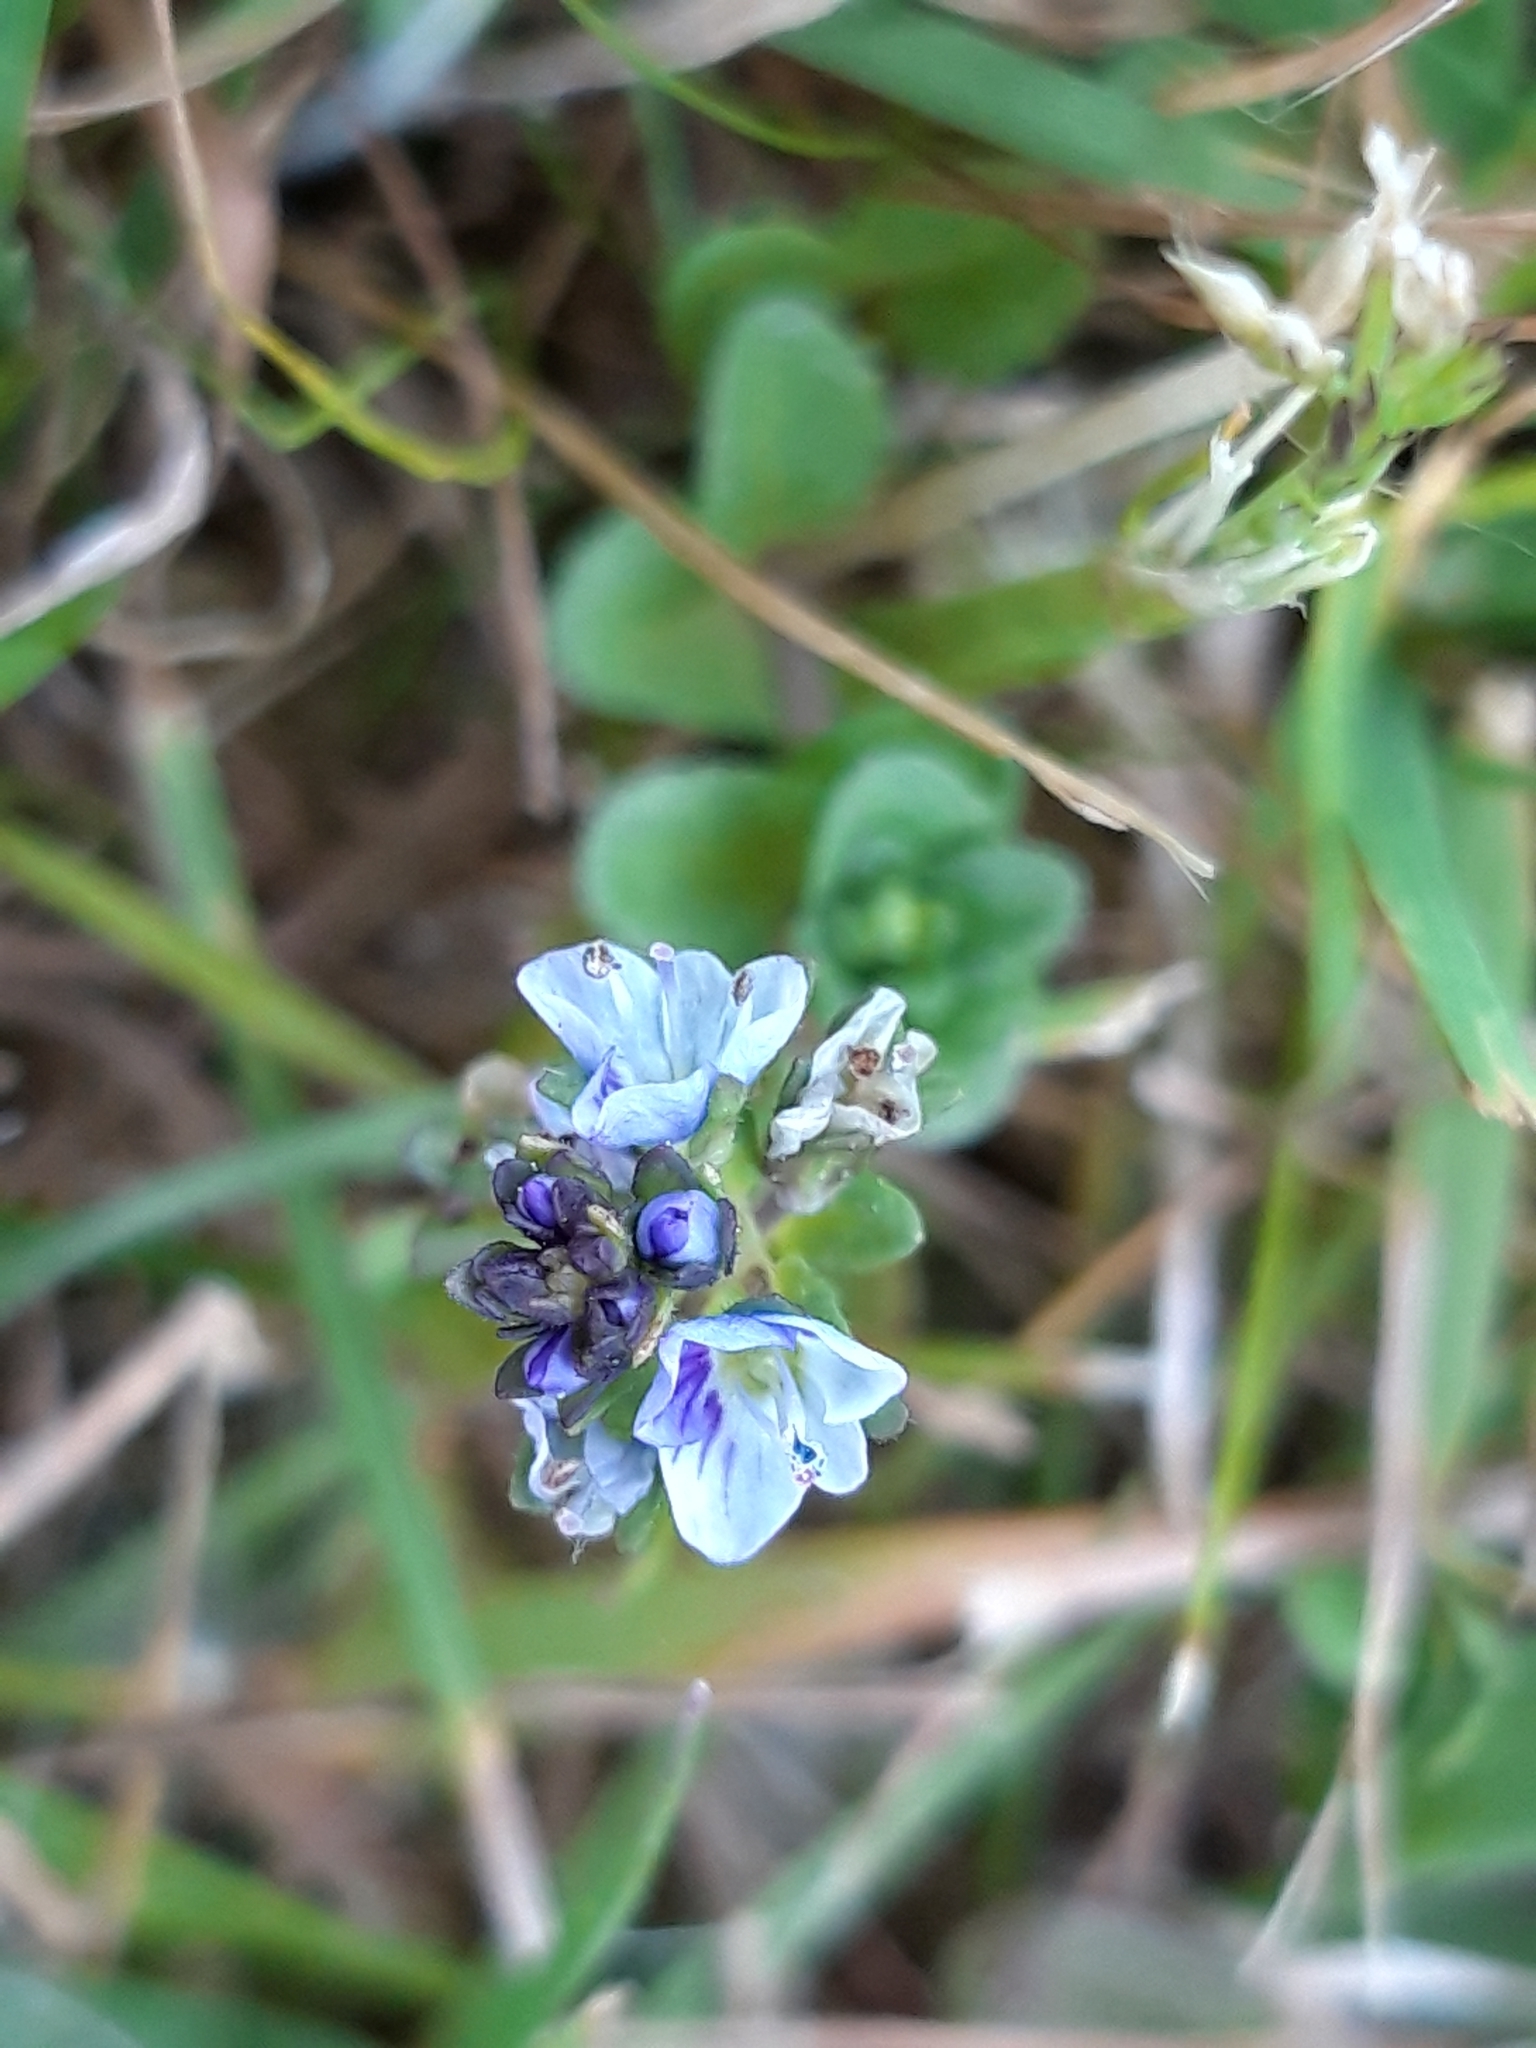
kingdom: Plantae
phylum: Tracheophyta
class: Magnoliopsida
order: Lamiales
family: Plantaginaceae
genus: Veronica
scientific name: Veronica serpyllifolia
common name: Thyme-leaved speedwell
